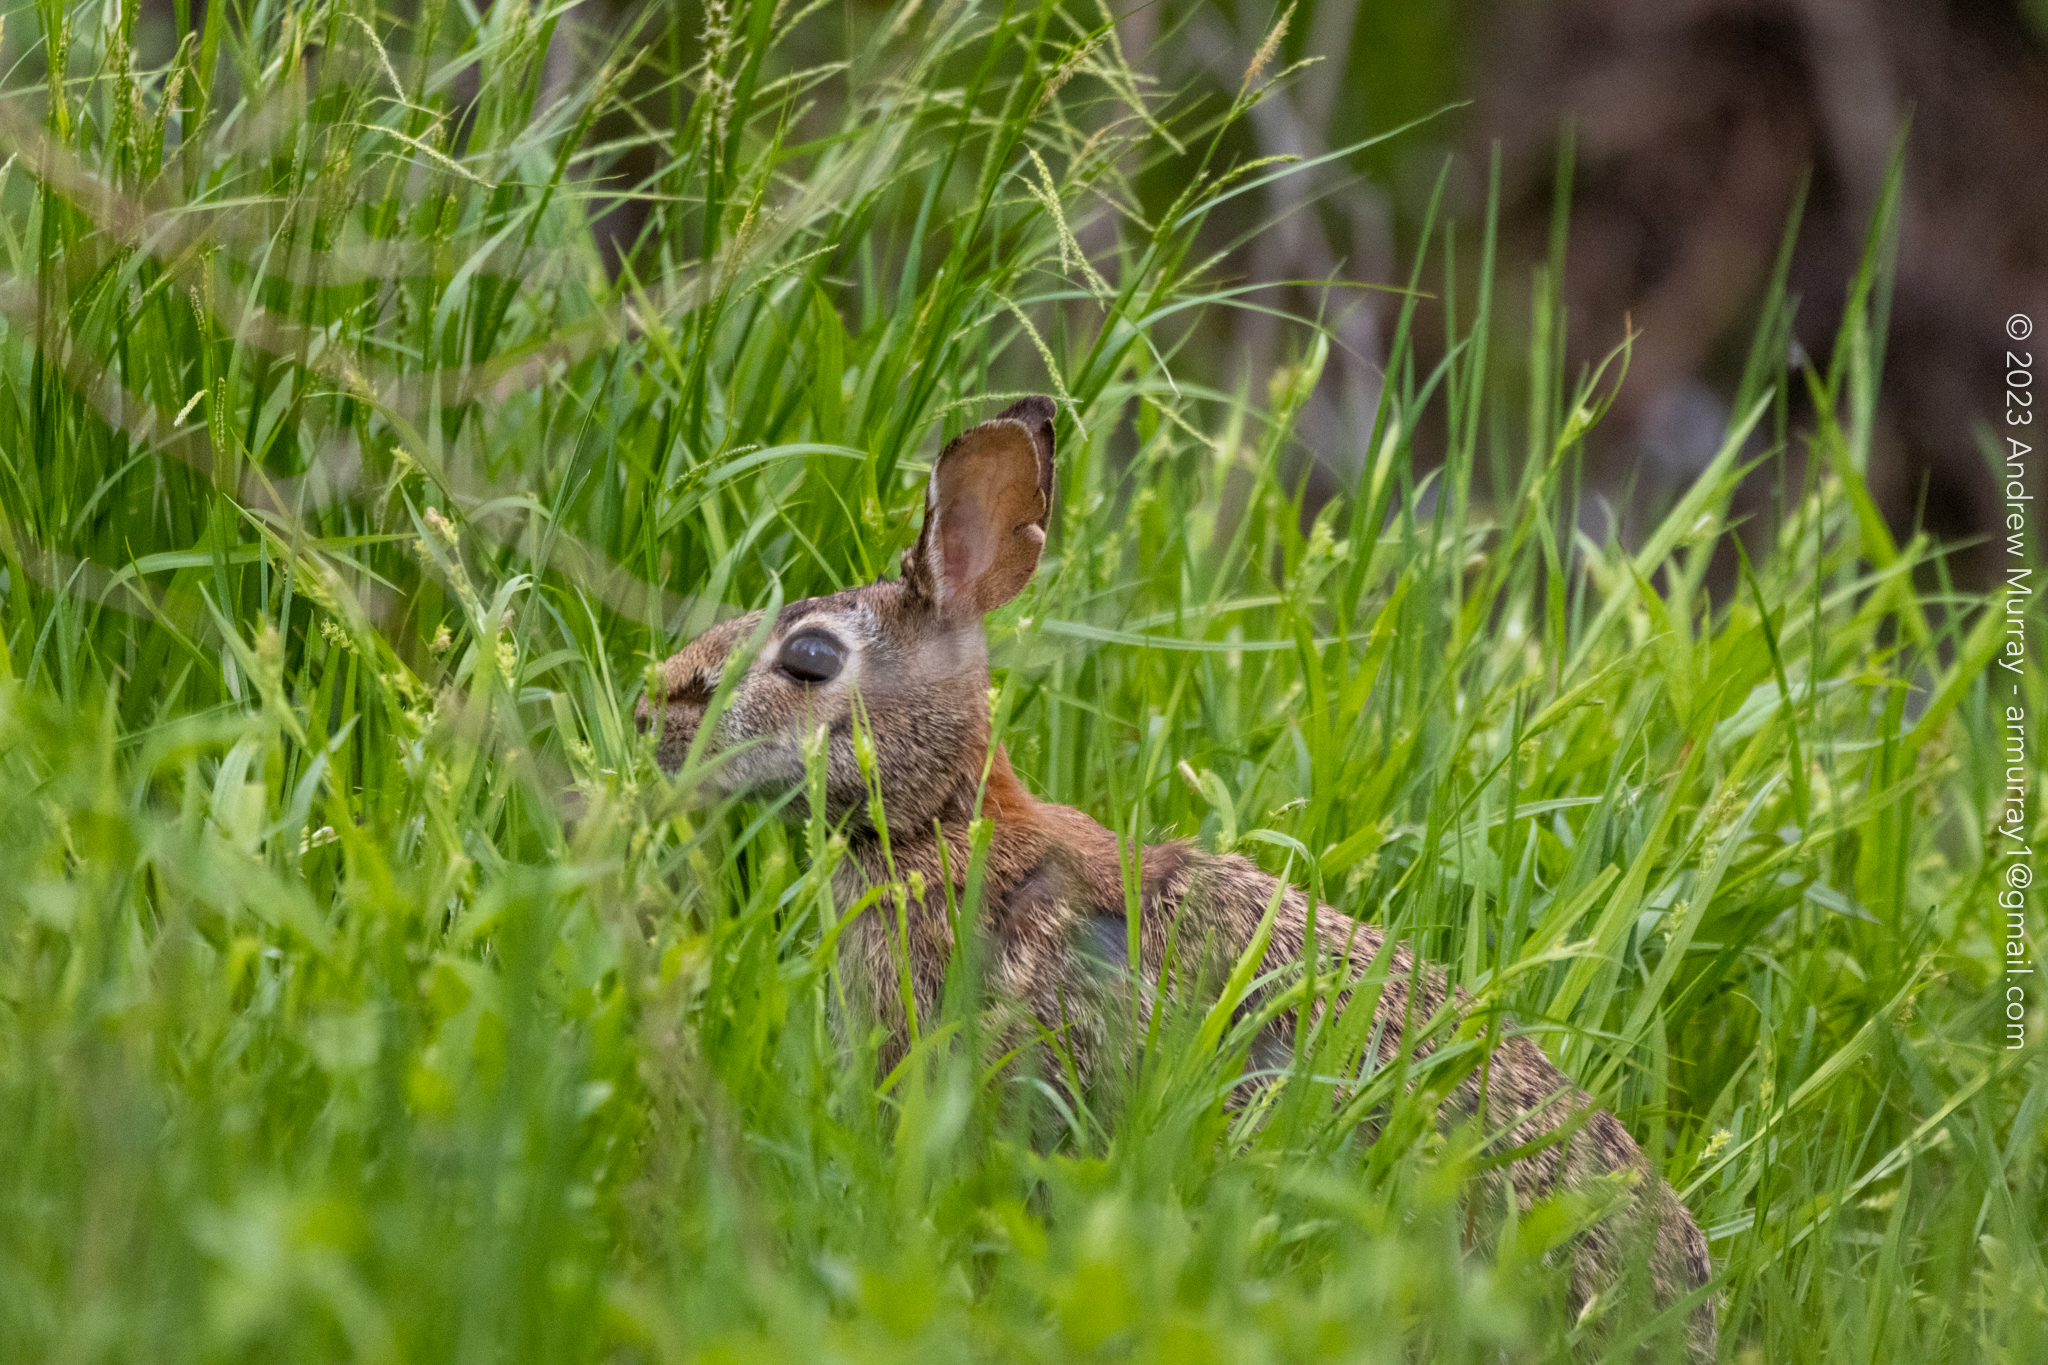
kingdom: Animalia
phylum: Chordata
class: Mammalia
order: Lagomorpha
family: Leporidae
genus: Sylvilagus
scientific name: Sylvilagus floridanus
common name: Eastern cottontail
